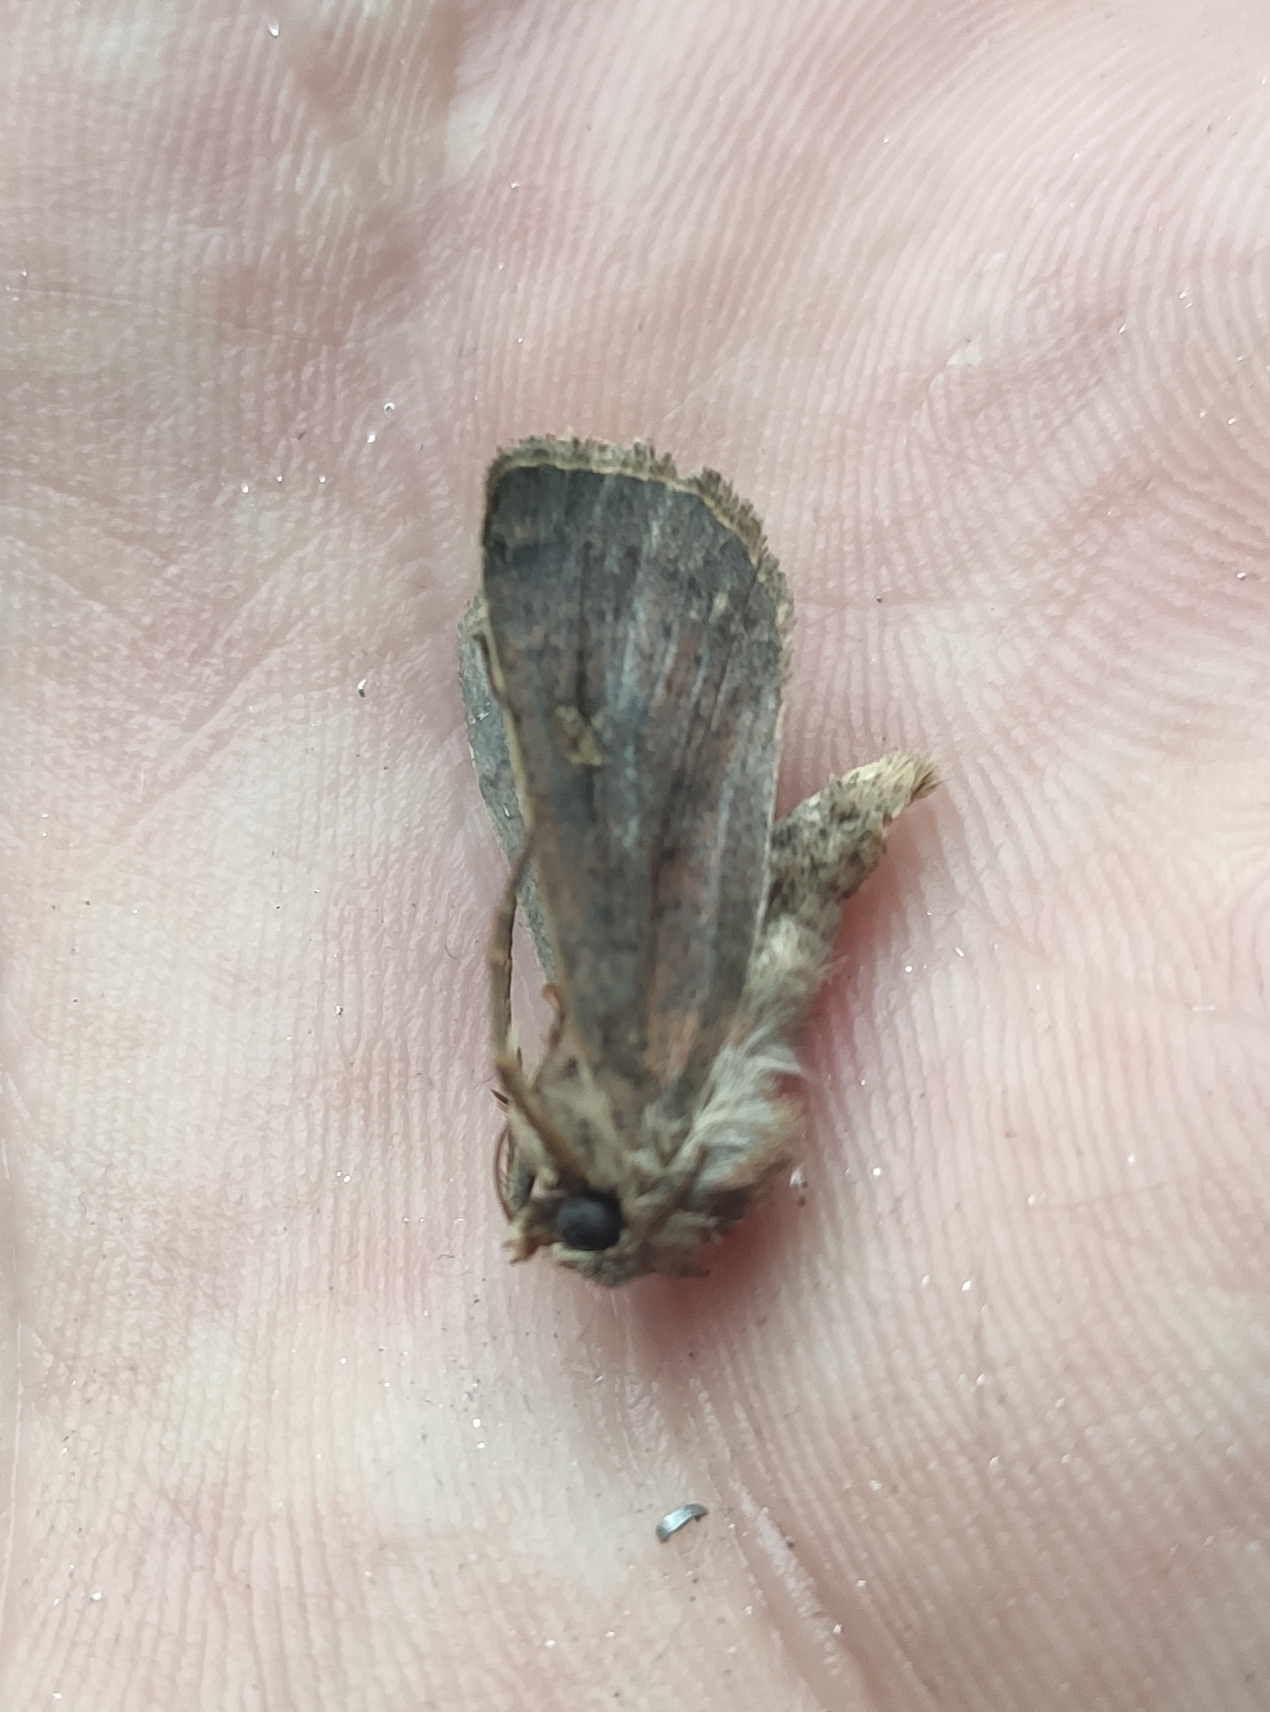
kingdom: Animalia
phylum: Arthropoda
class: Insecta
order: Lepidoptera
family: Noctuidae
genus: Xestia
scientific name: Xestia xanthographa
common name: Square-spot rustic
